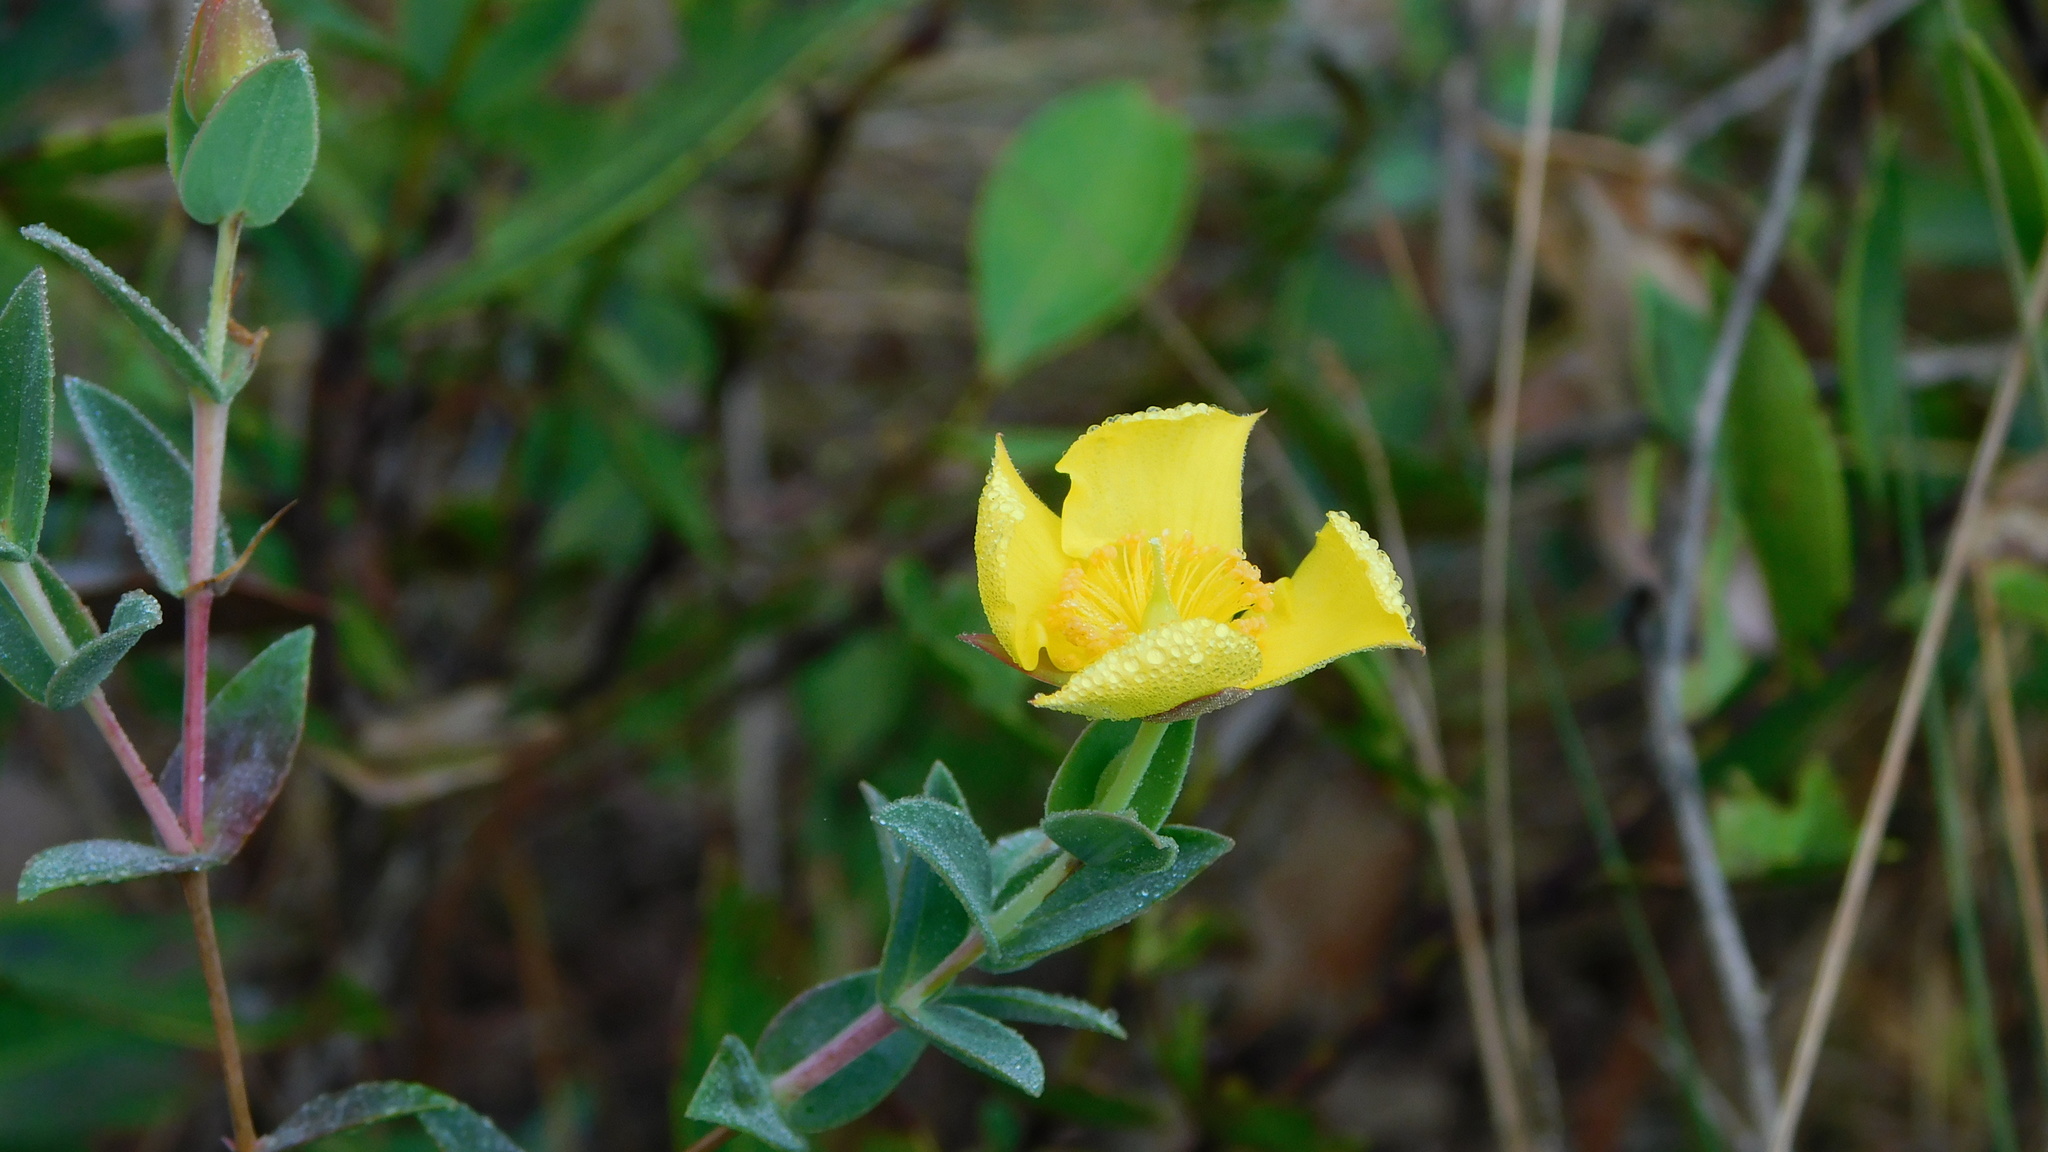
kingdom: Plantae
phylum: Tracheophyta
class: Magnoliopsida
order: Malpighiales
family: Hypericaceae
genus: Hypericum
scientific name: Hypericum tetrapetalum
